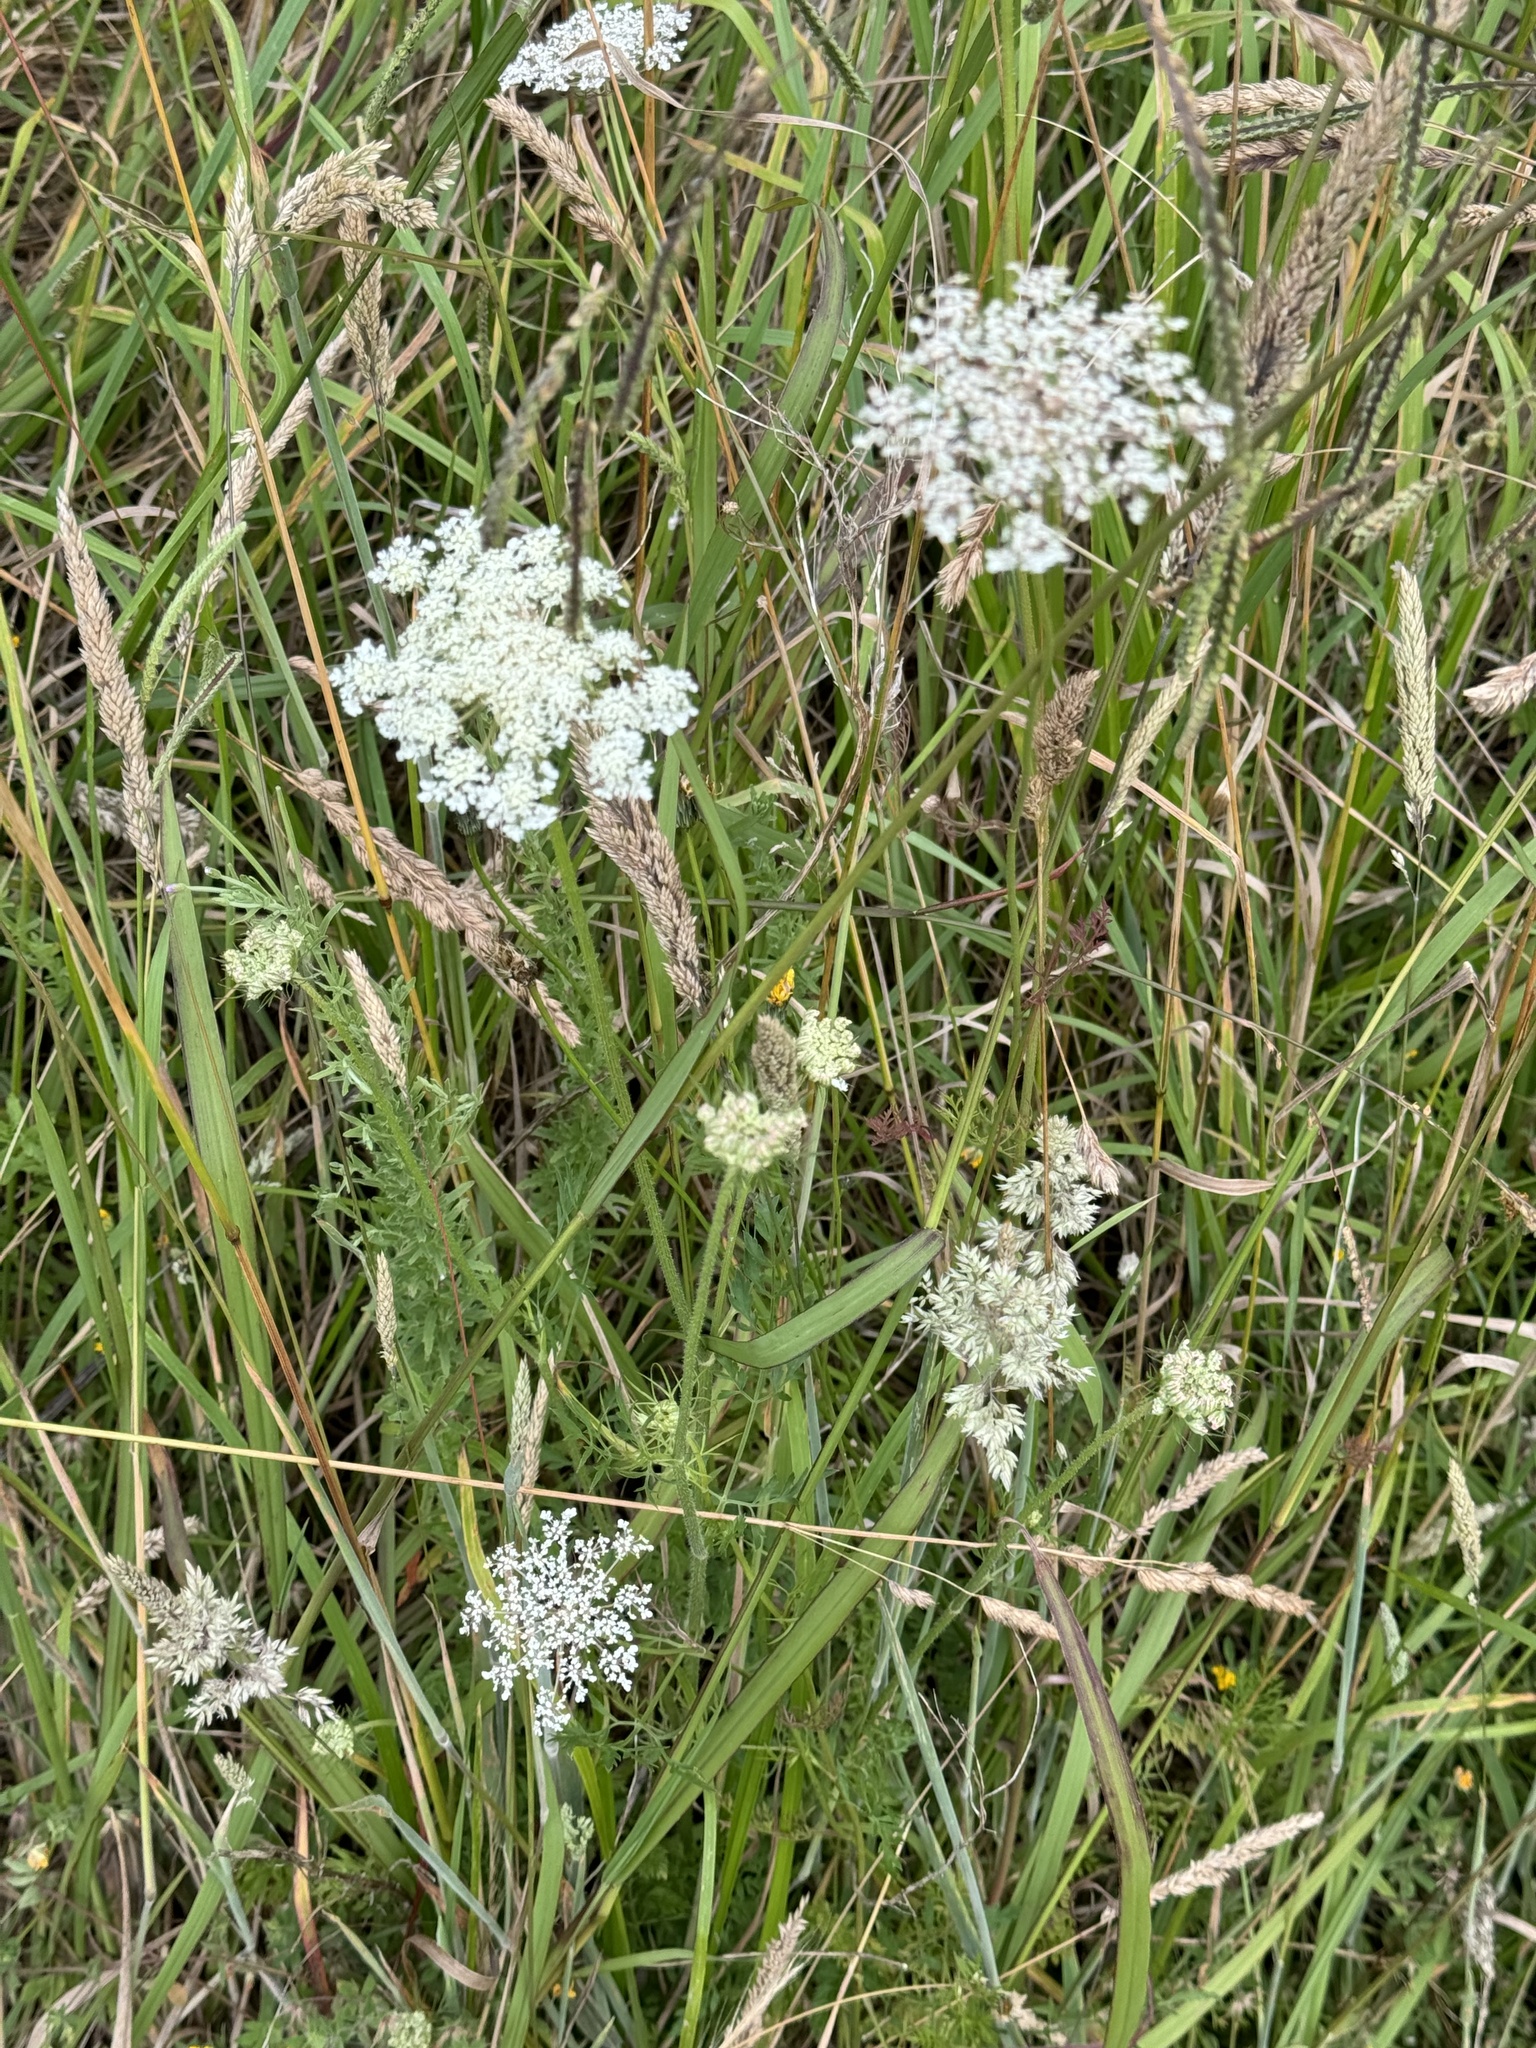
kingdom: Plantae
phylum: Tracheophyta
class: Magnoliopsida
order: Apiales
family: Apiaceae
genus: Daucus
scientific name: Daucus carota
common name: Wild carrot
